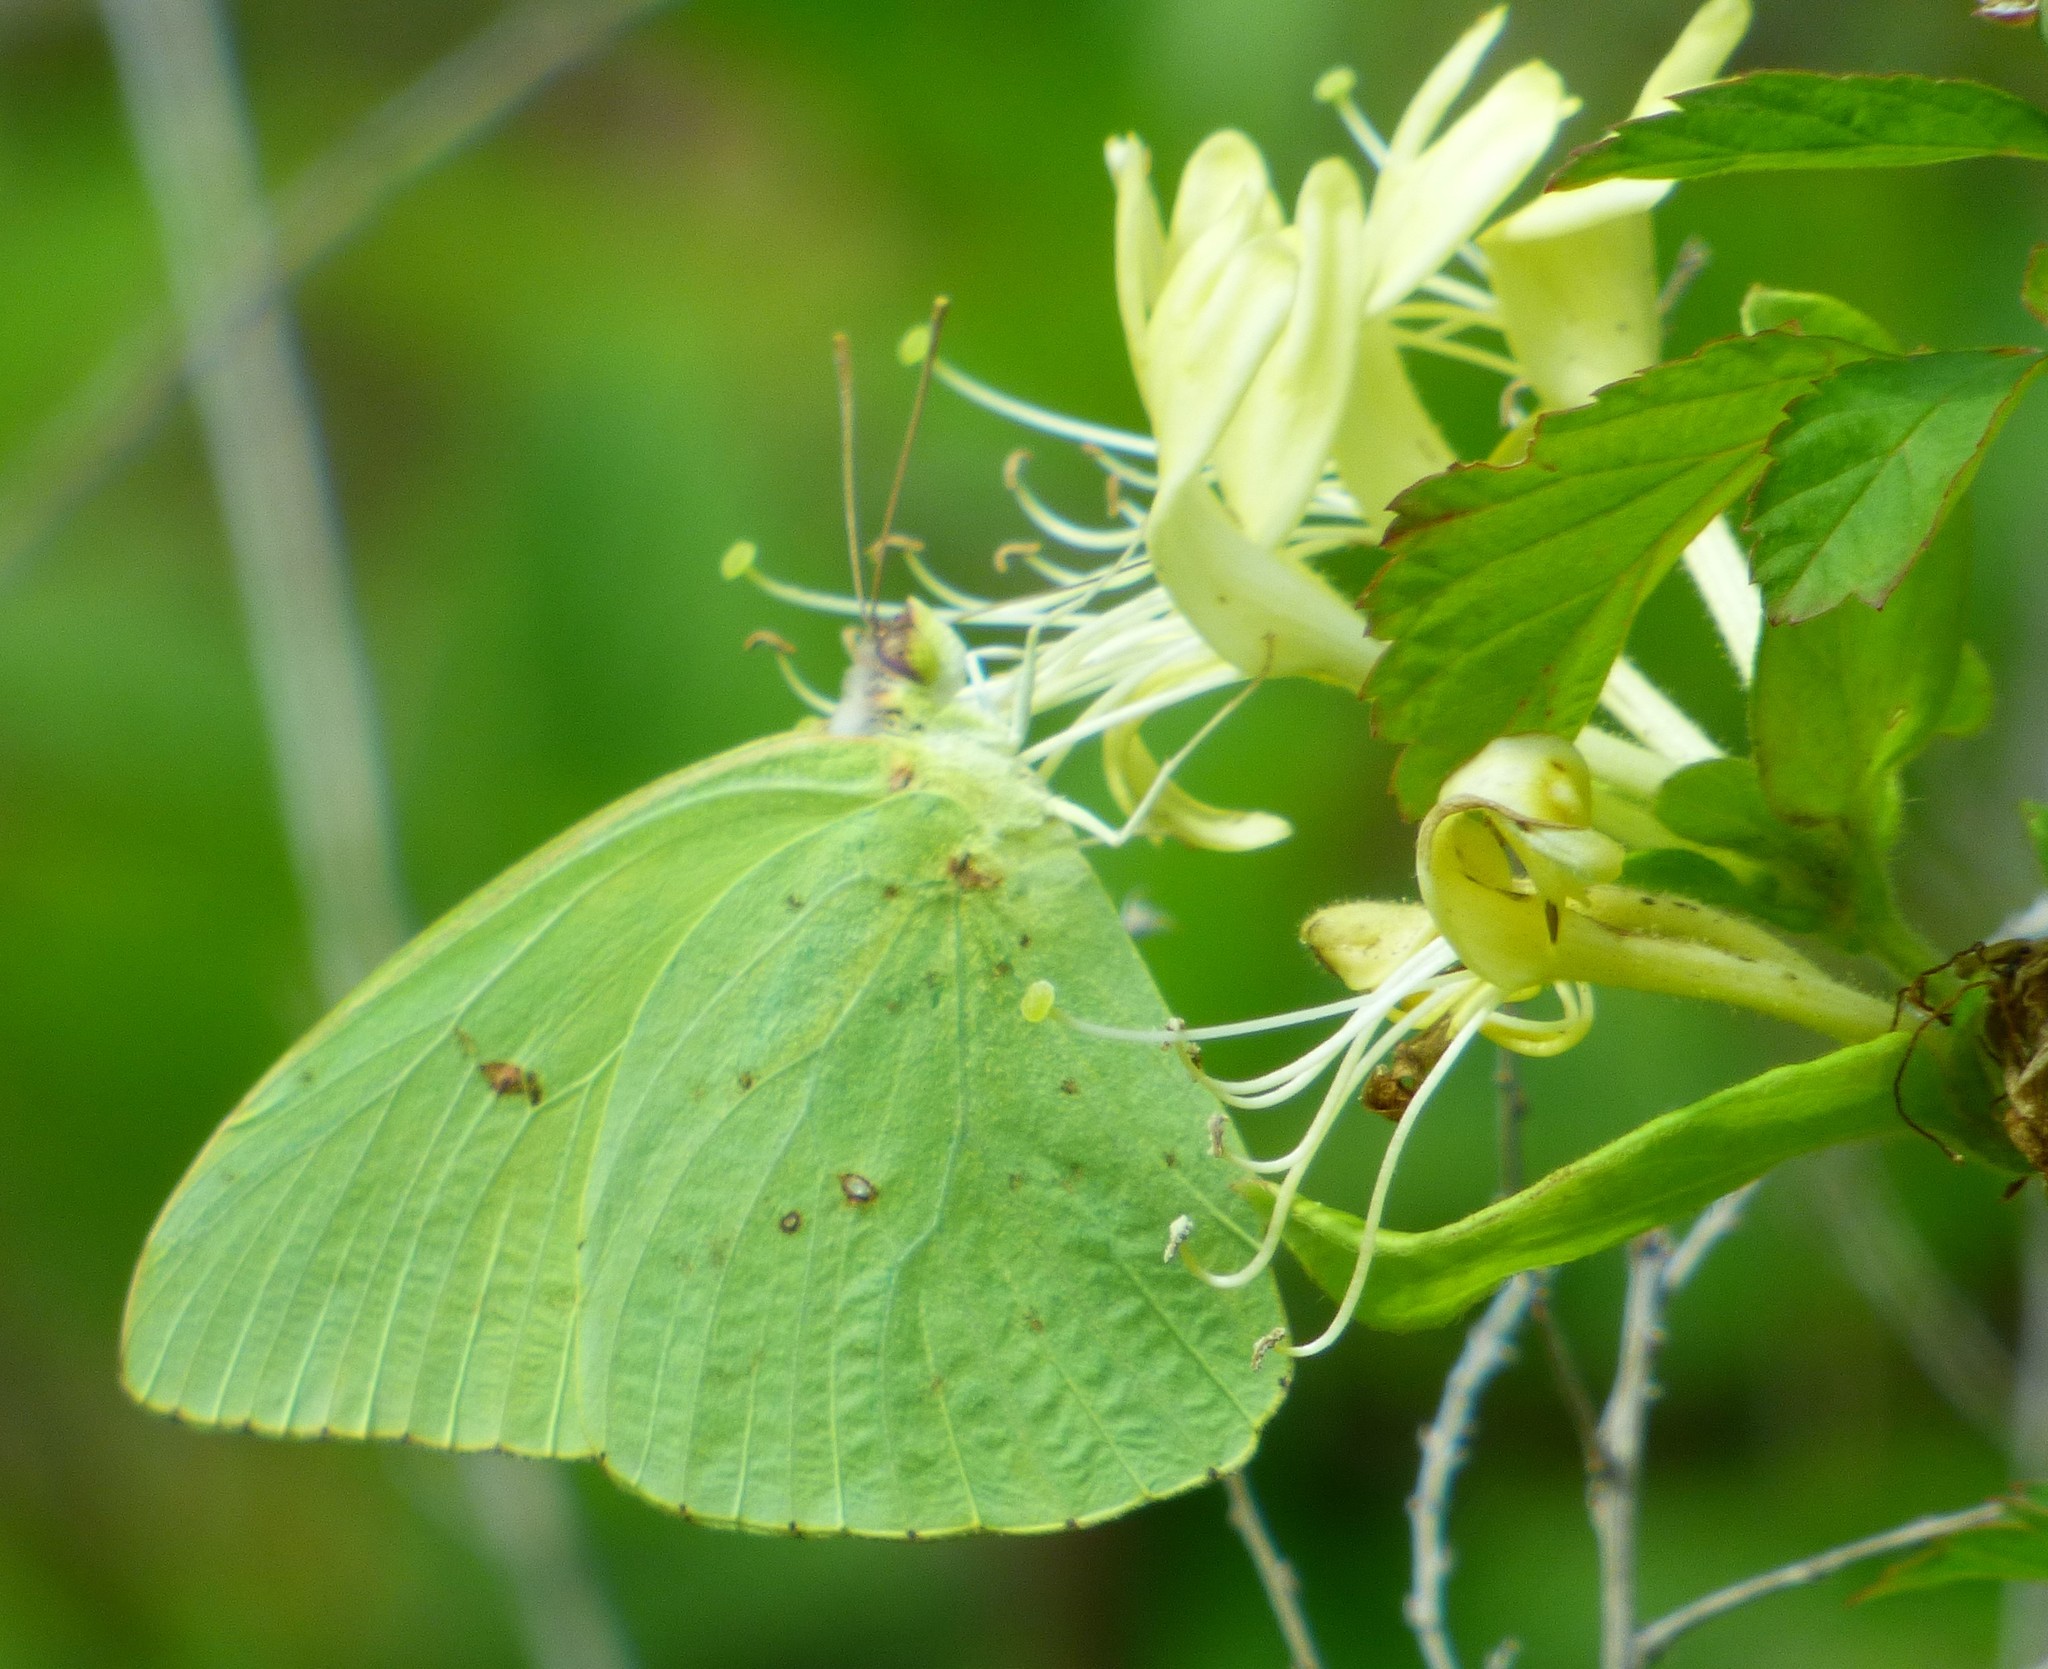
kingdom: Animalia
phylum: Arthropoda
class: Insecta
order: Lepidoptera
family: Pieridae
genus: Phoebis
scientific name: Phoebis sennae
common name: Cloudless sulphur
